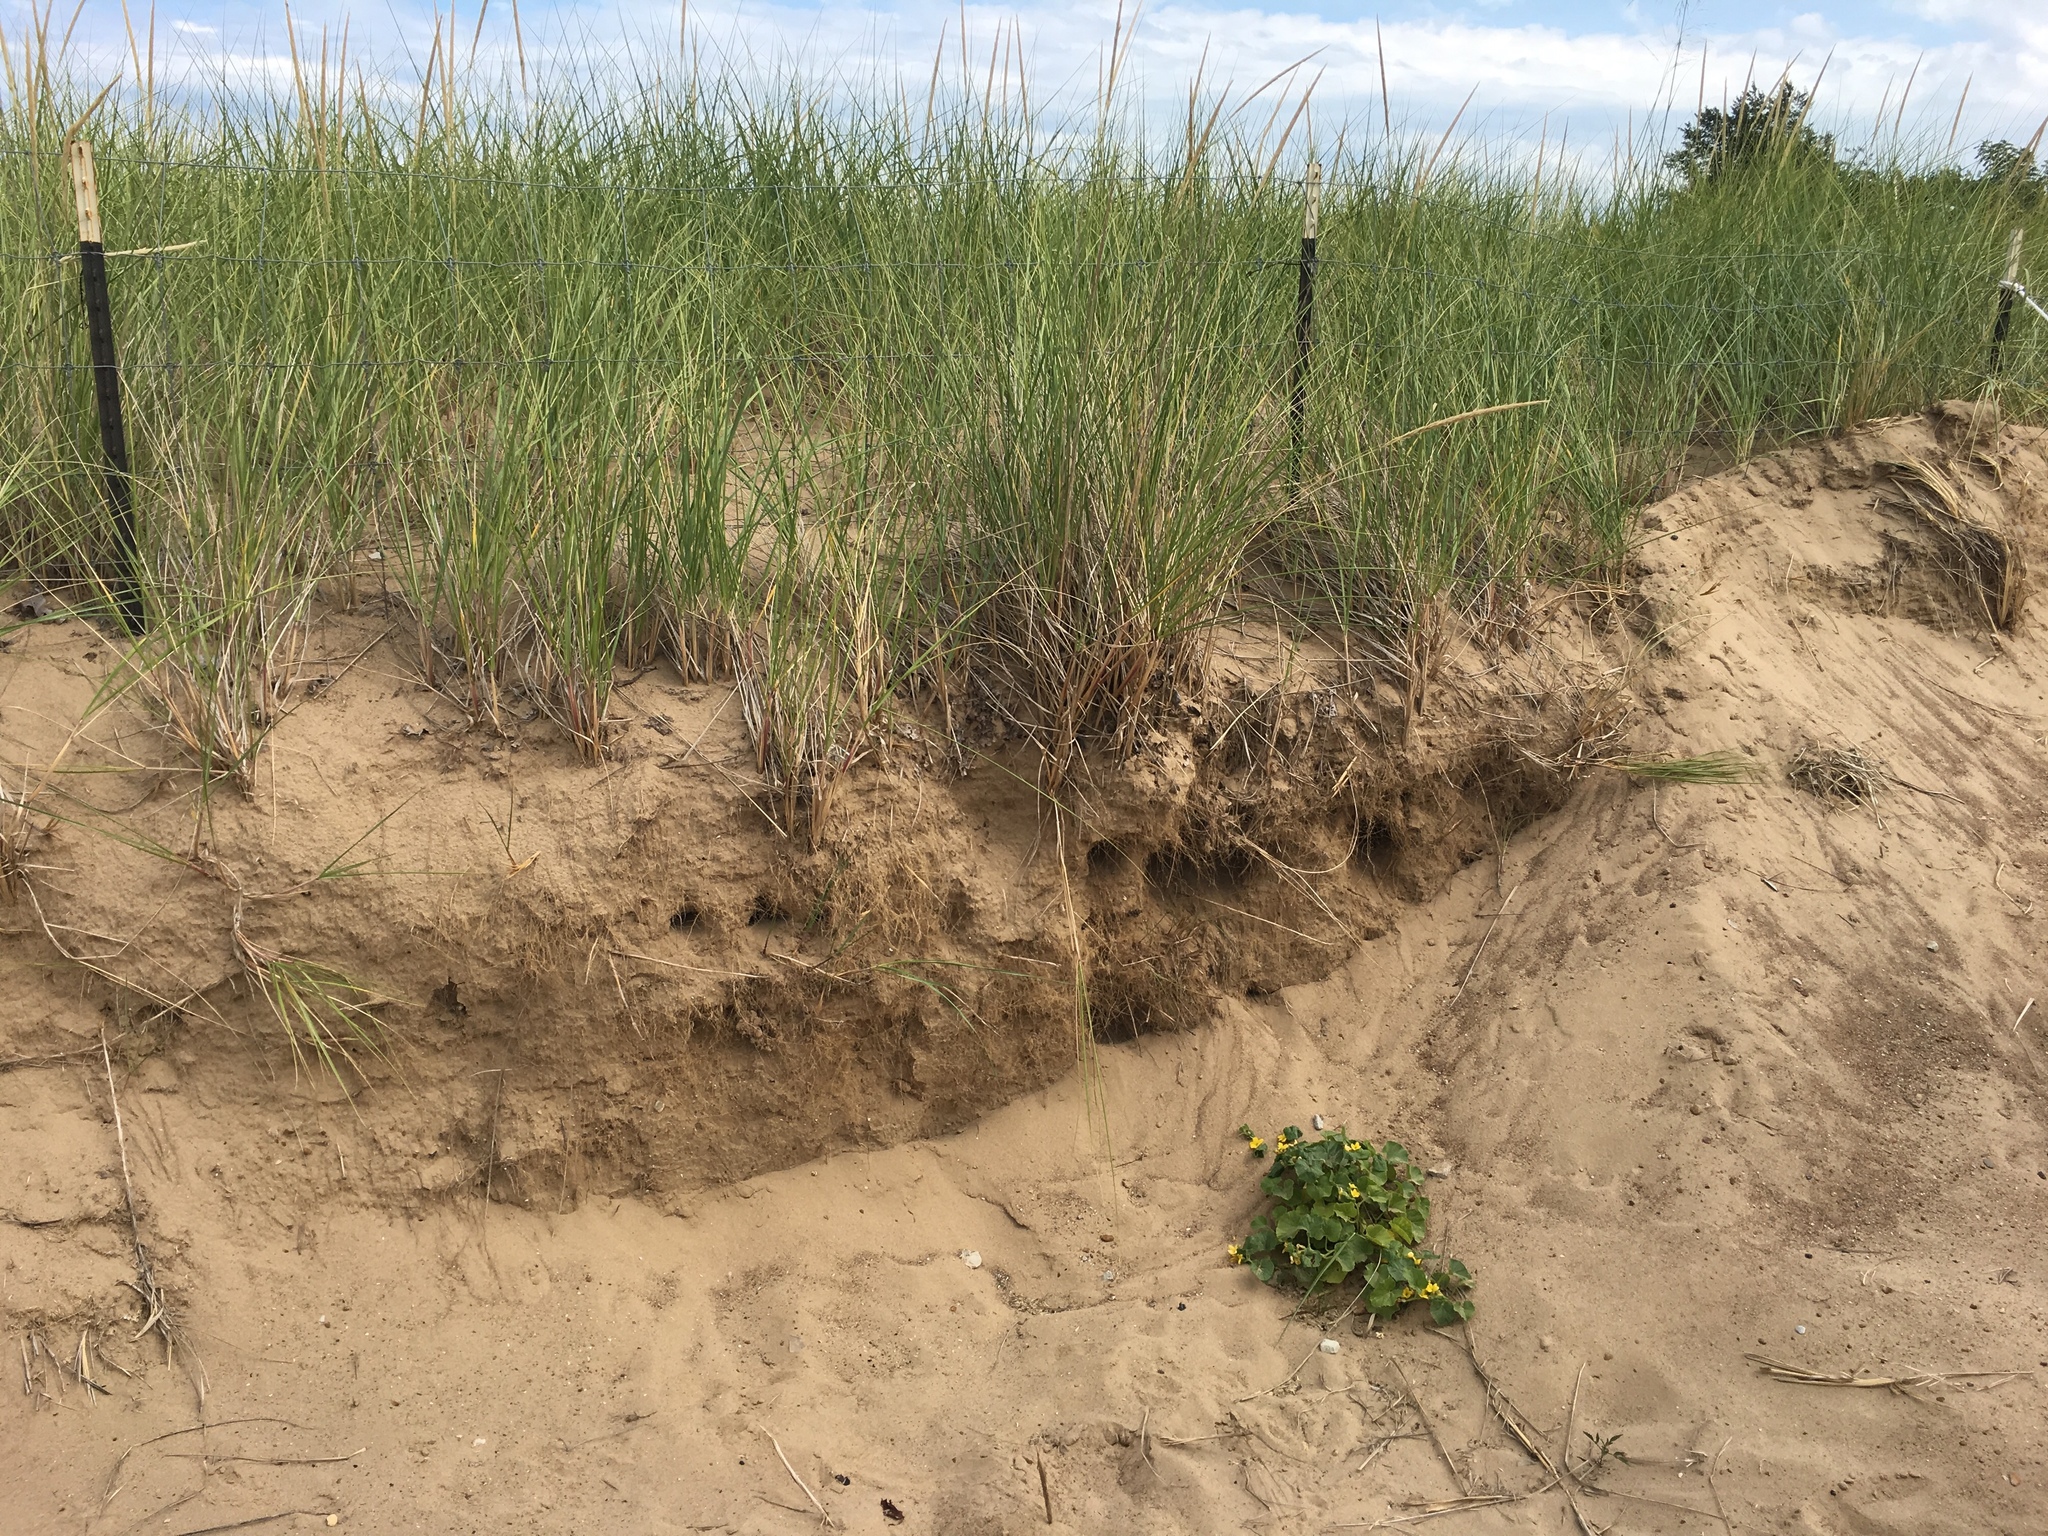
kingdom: Animalia
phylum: Chordata
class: Aves
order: Passeriformes
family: Hirundinidae
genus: Riparia
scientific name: Riparia riparia
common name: Sand martin
